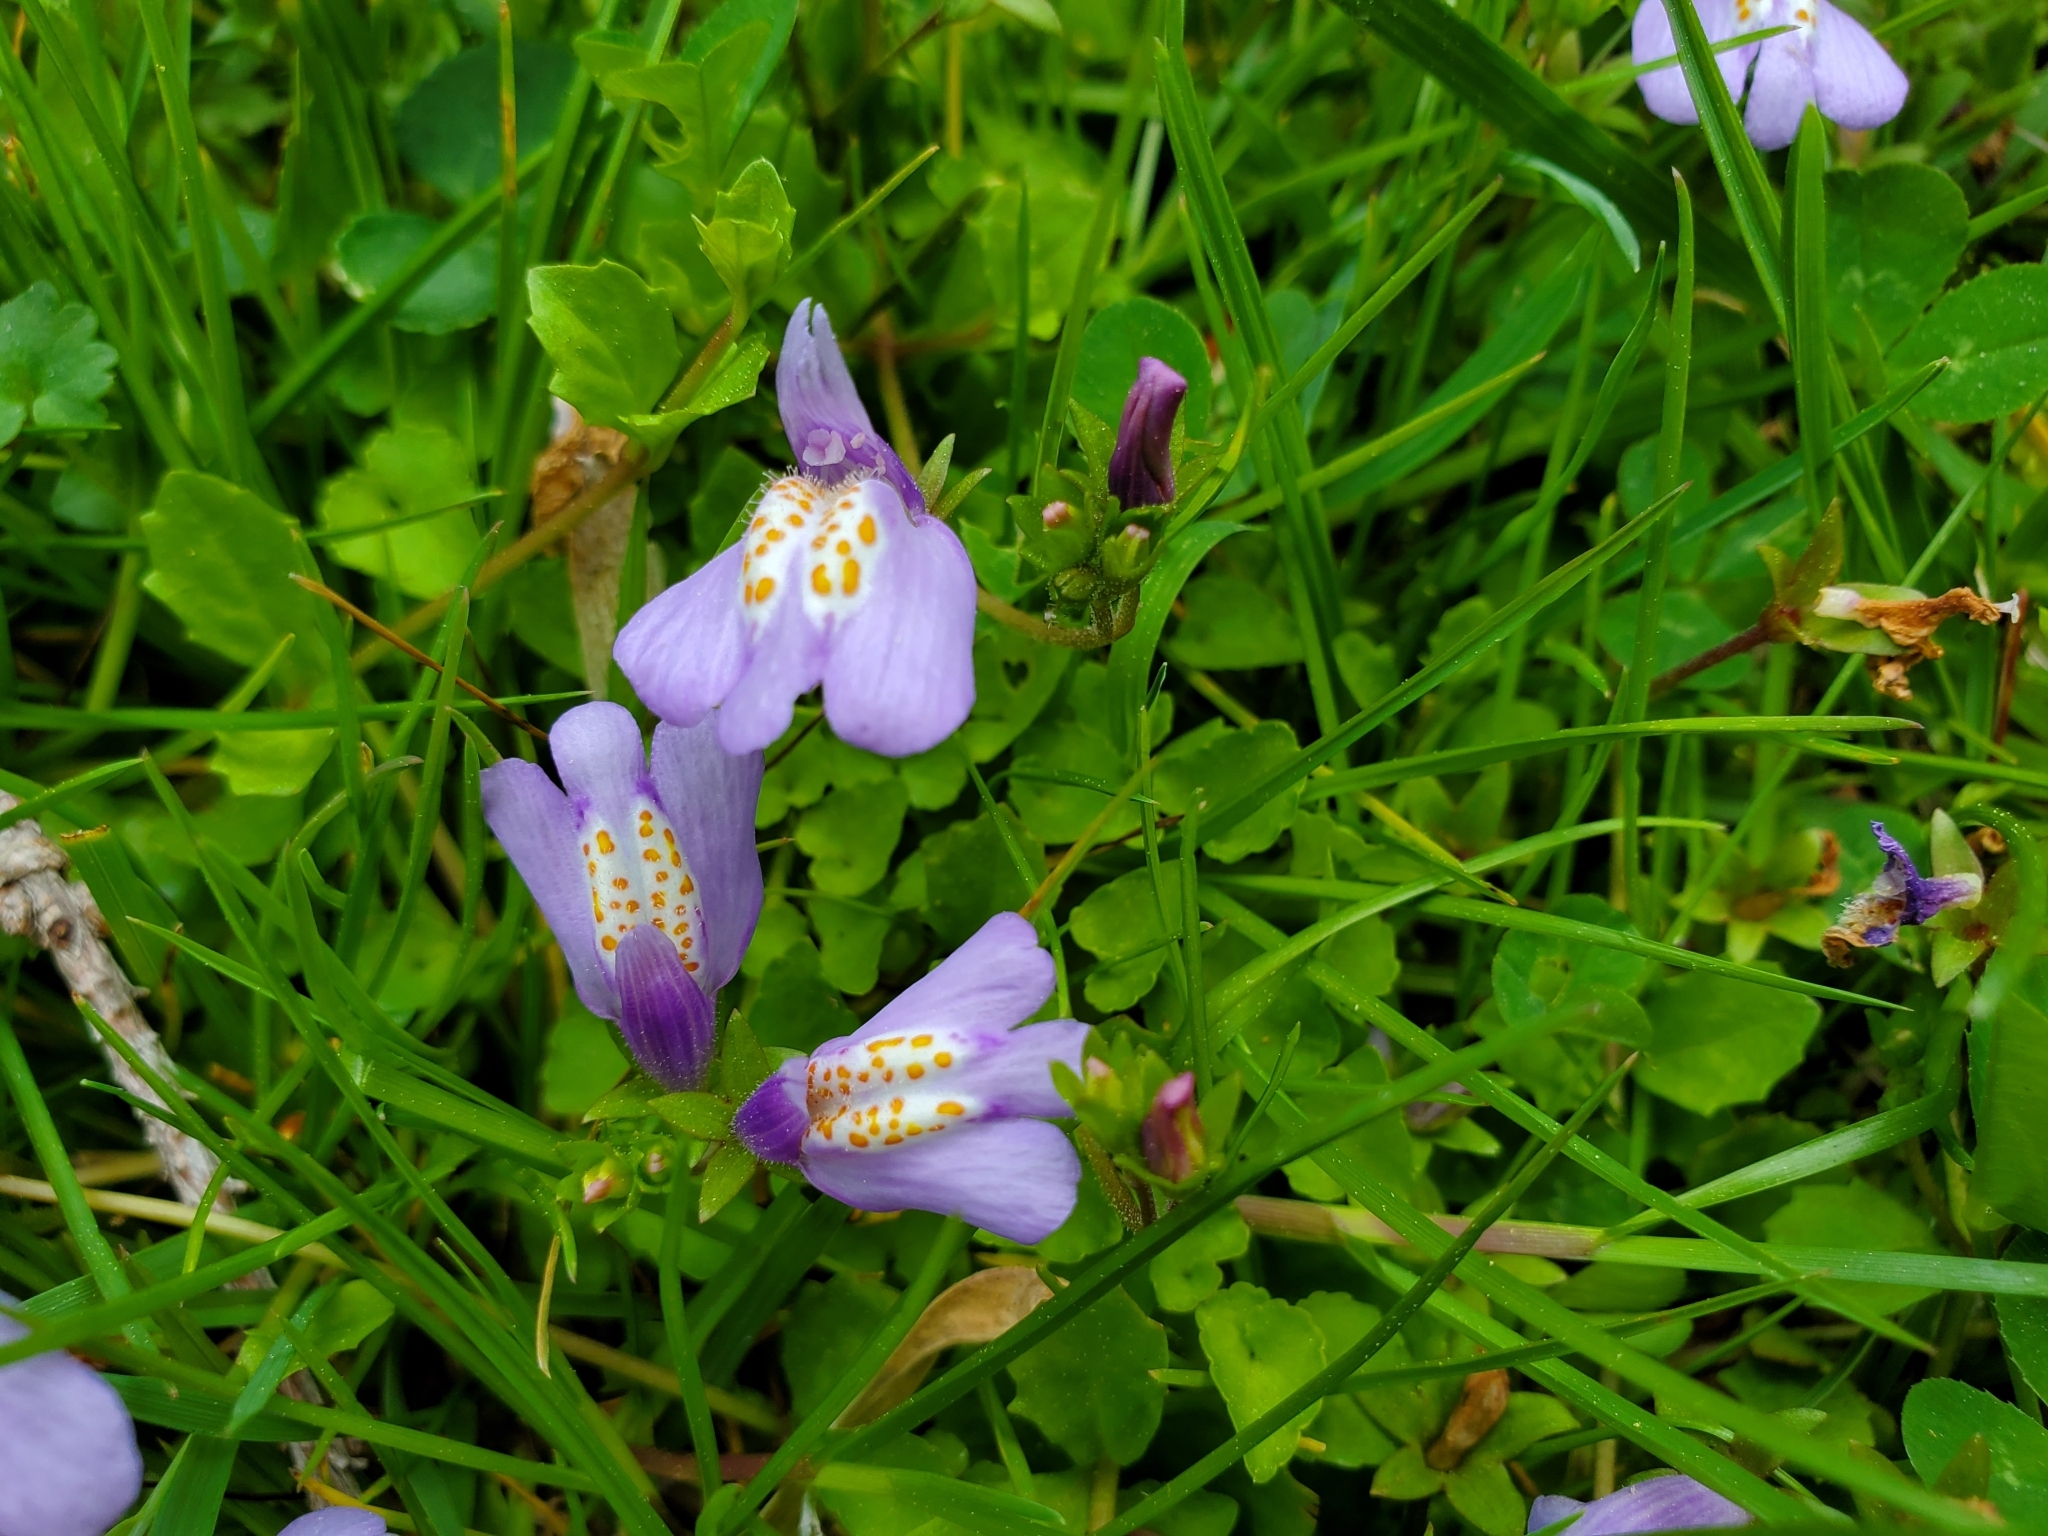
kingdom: Plantae
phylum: Tracheophyta
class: Magnoliopsida
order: Lamiales
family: Mazaceae
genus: Mazus
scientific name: Mazus miquelii
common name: Miquel's mazus
